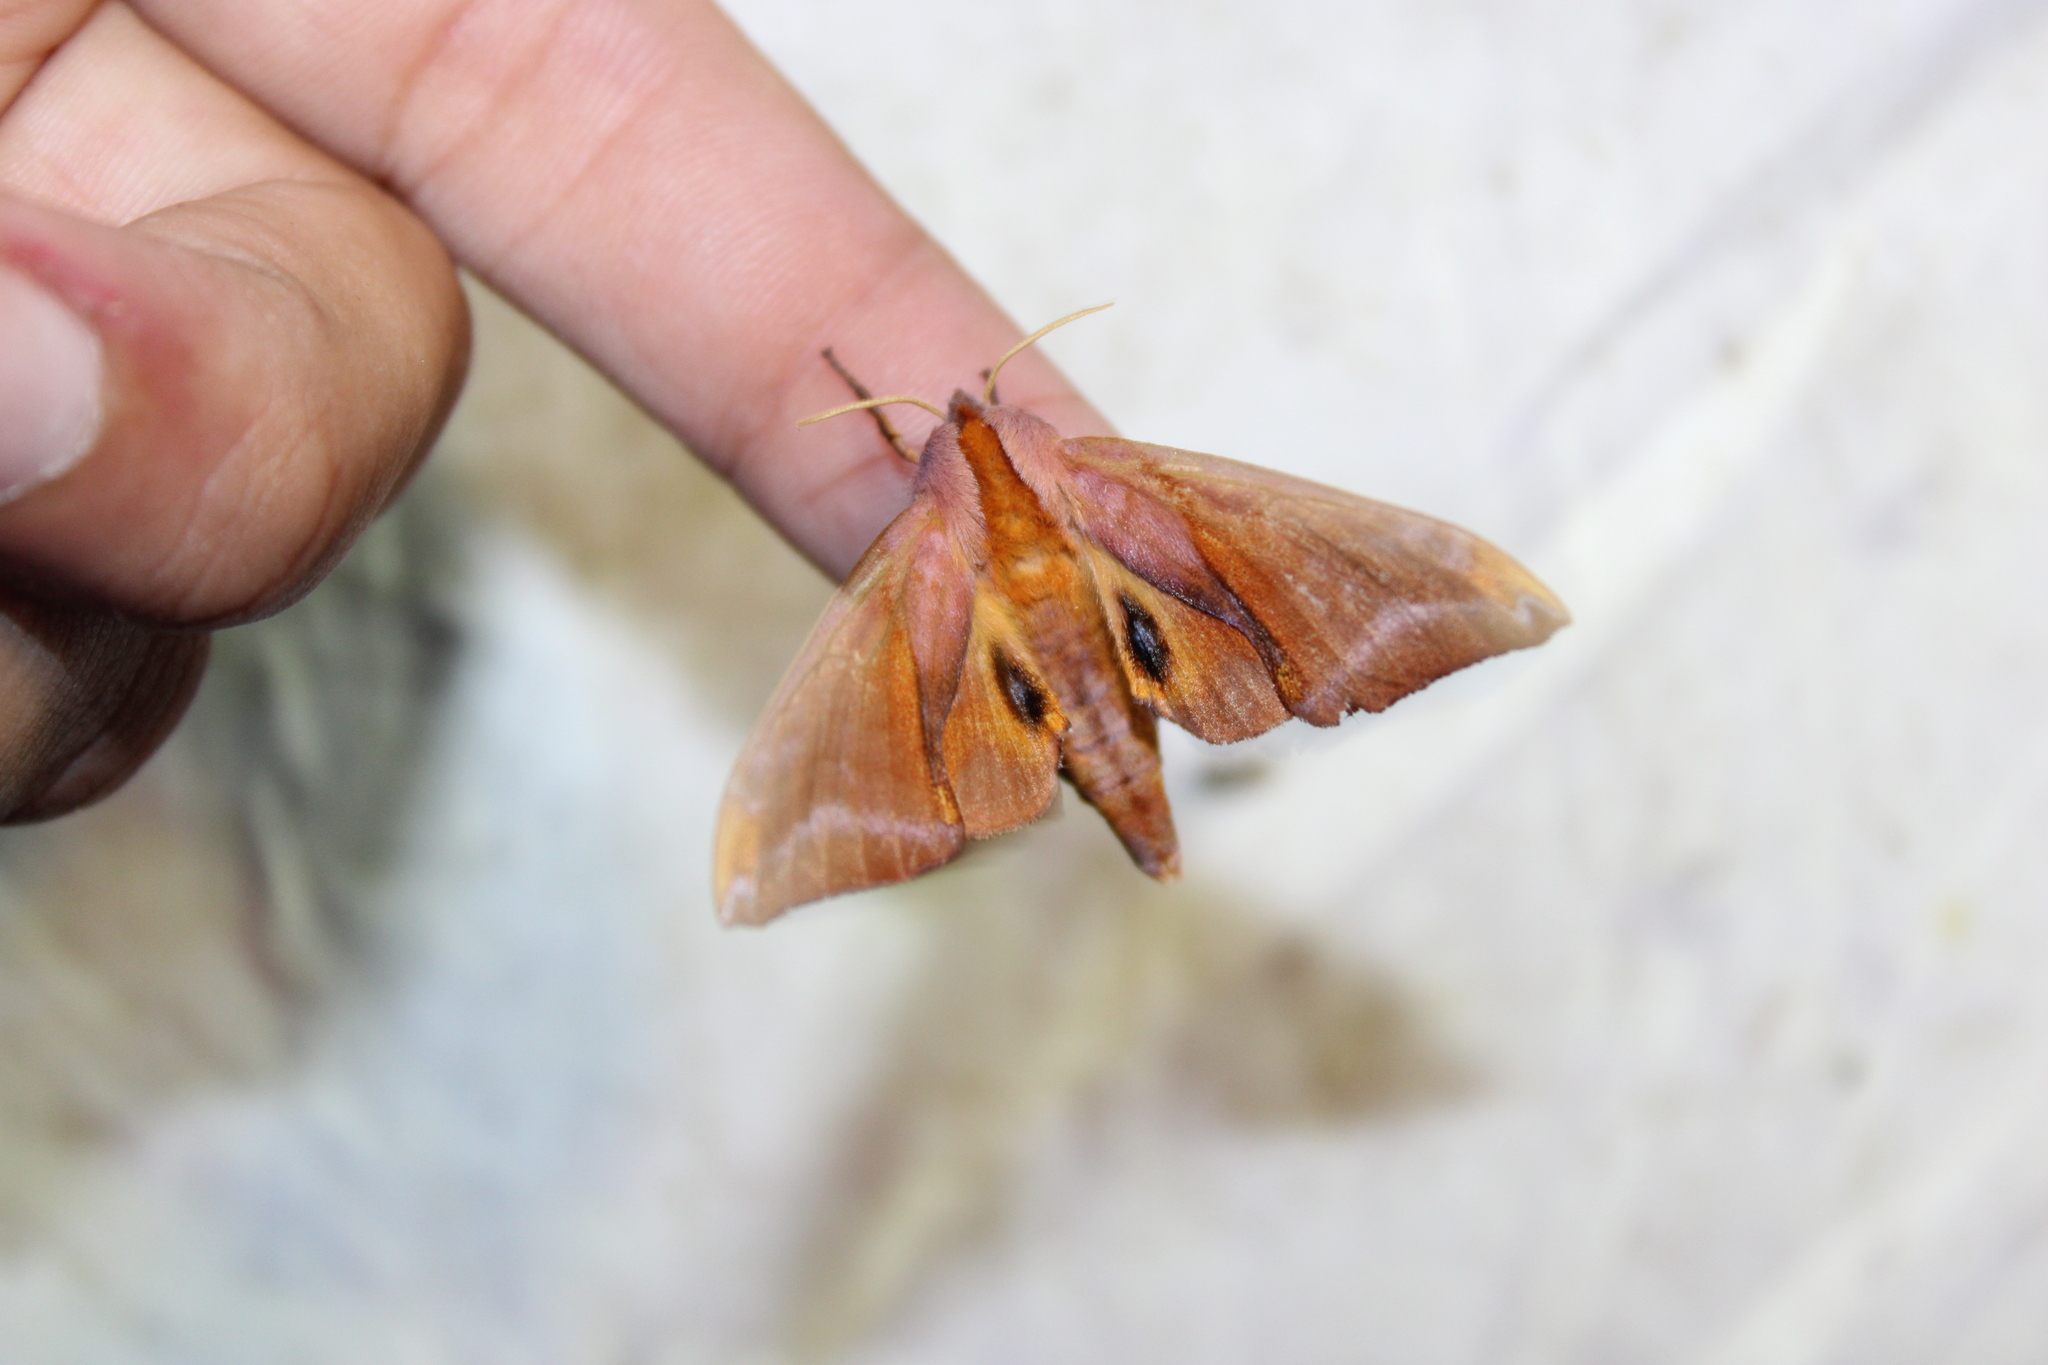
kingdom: Animalia
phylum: Arthropoda
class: Insecta
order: Lepidoptera
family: Sphingidae
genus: Paonias
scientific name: Paonias astylus
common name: Huckleberry sphinx
